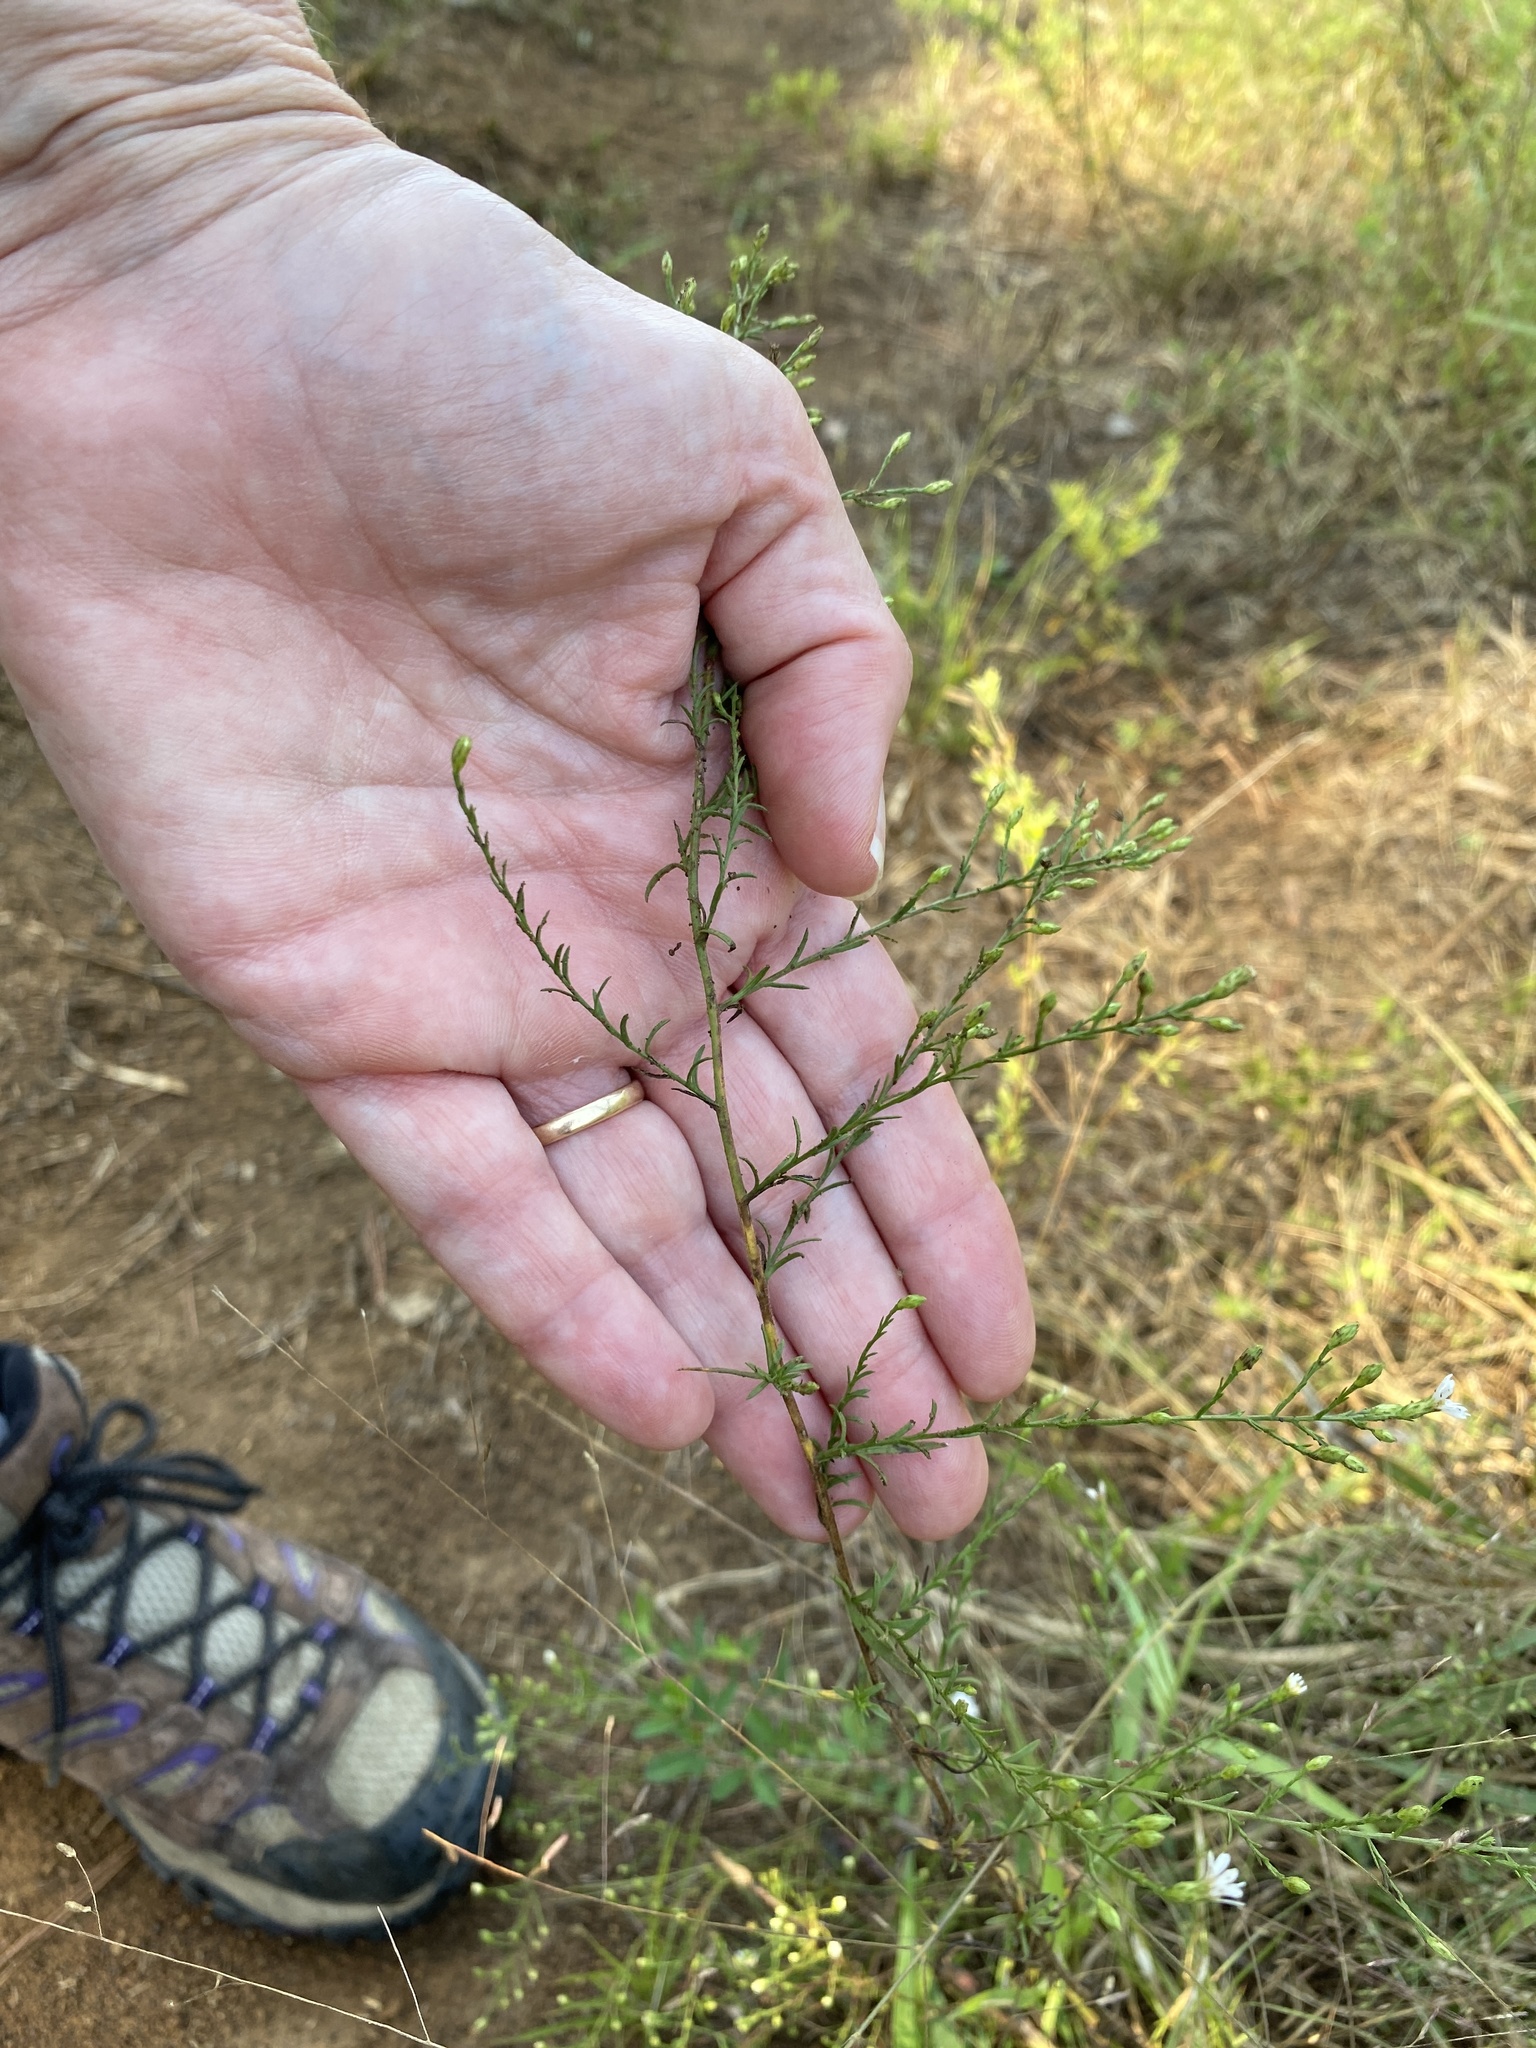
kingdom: Plantae
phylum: Tracheophyta
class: Magnoliopsida
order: Asterales
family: Asteraceae
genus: Symphyotrichum
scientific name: Symphyotrichum depauperatum
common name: Serpentine aster
